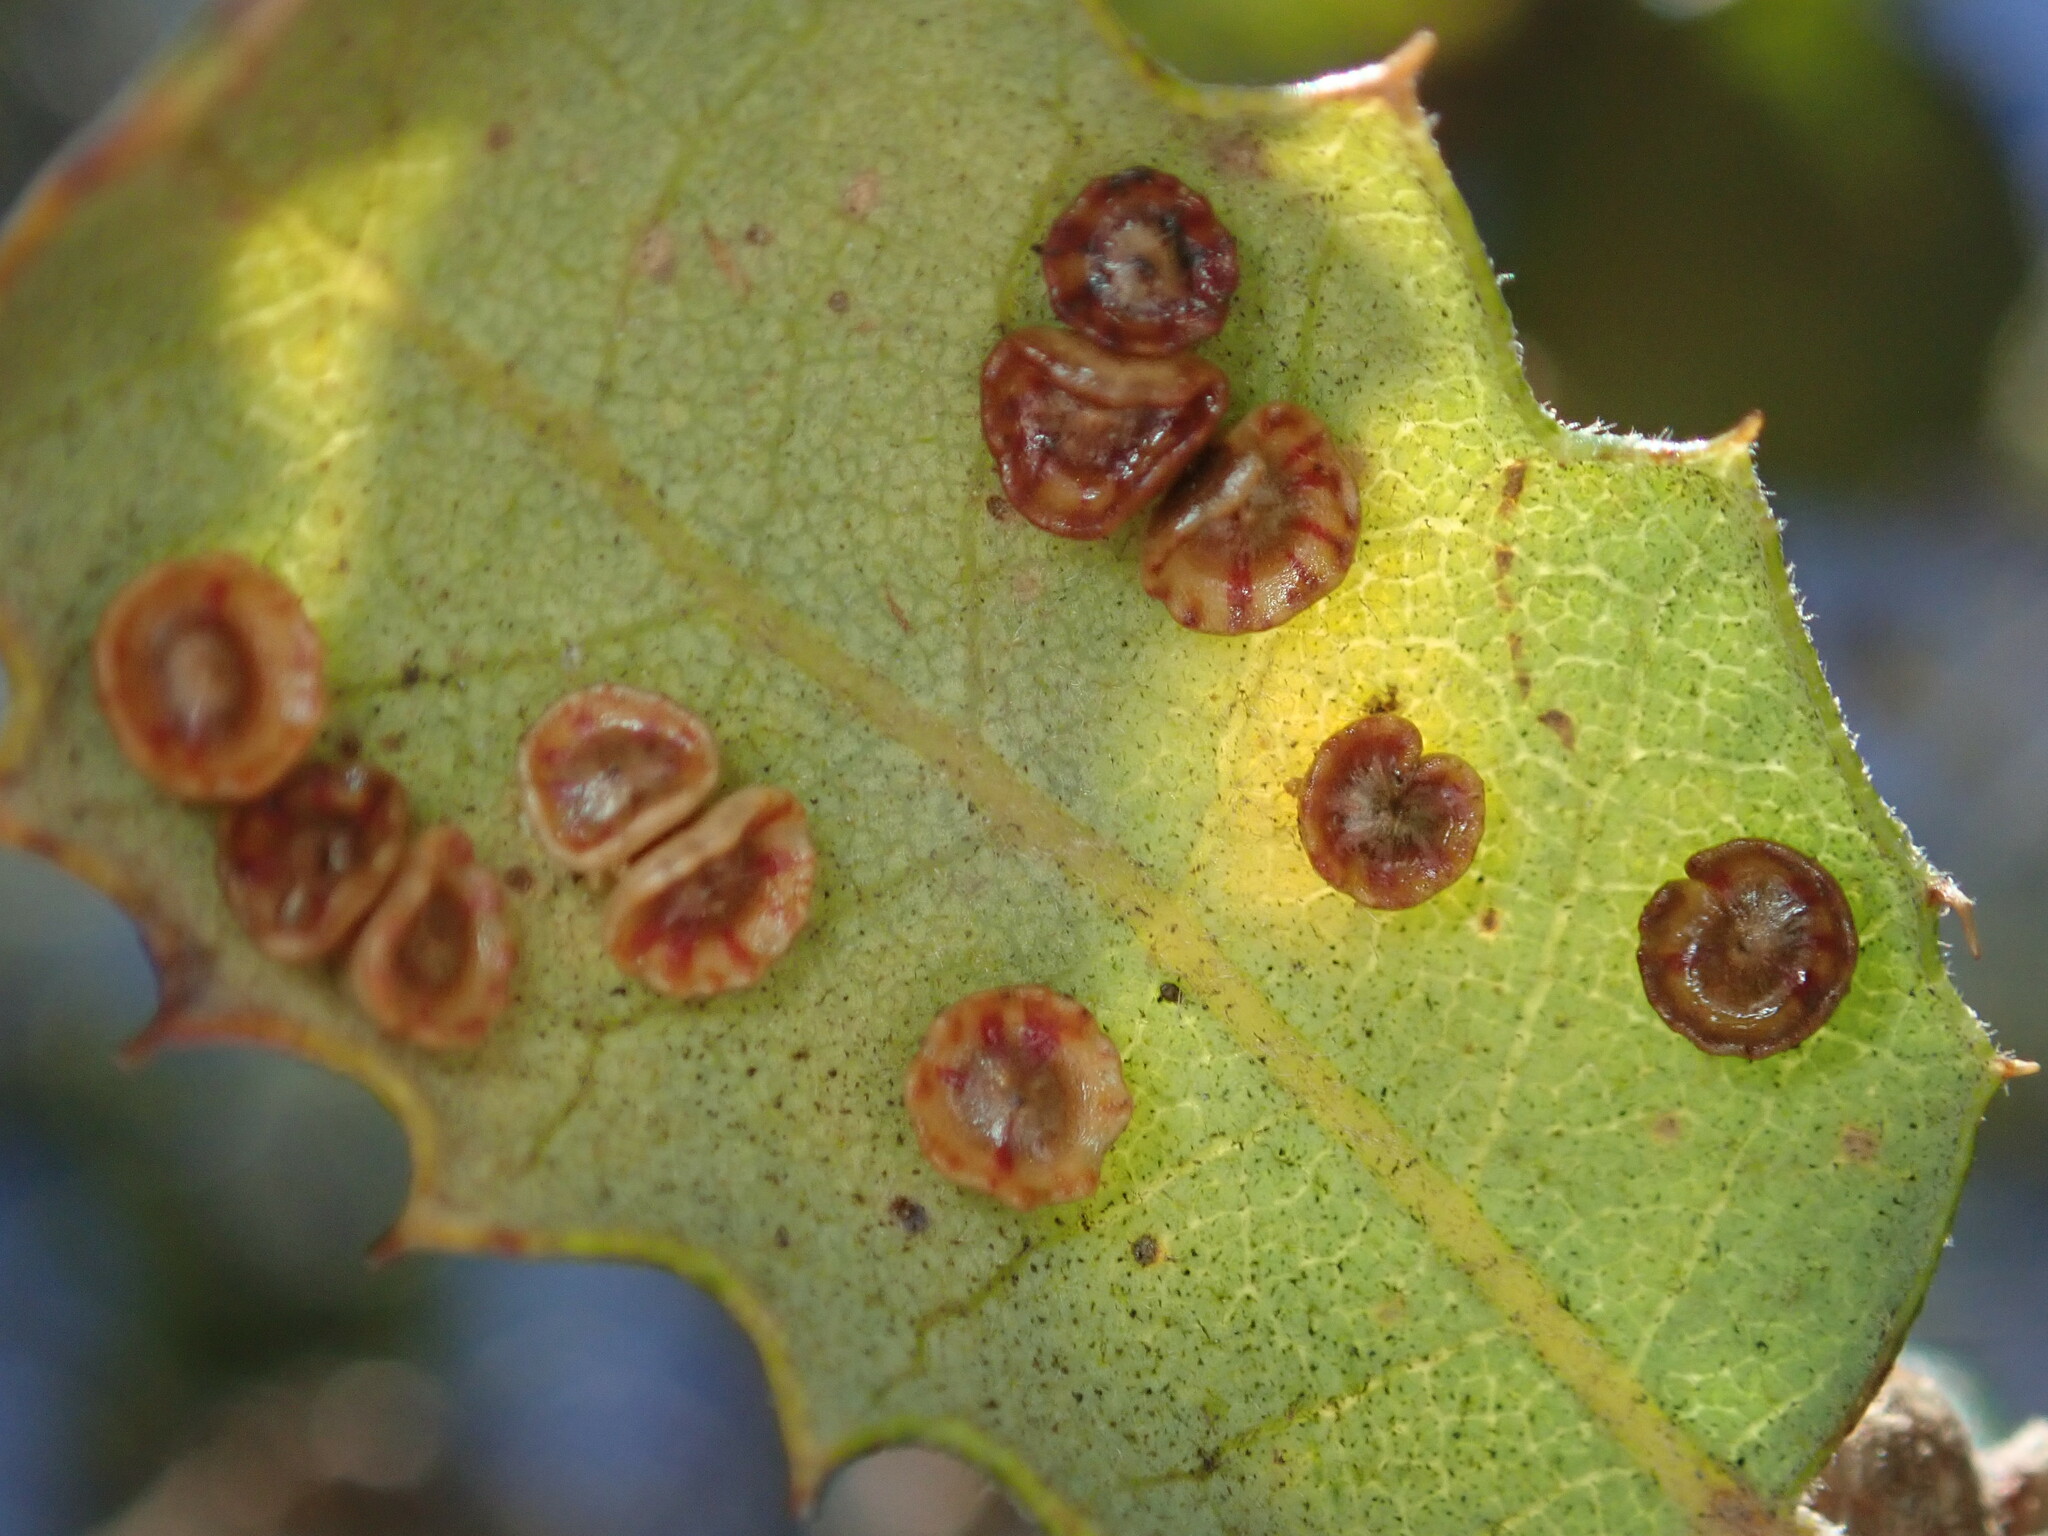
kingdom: Animalia
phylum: Arthropoda
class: Insecta
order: Hymenoptera
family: Cynipidae
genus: Andricus
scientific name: Andricus
